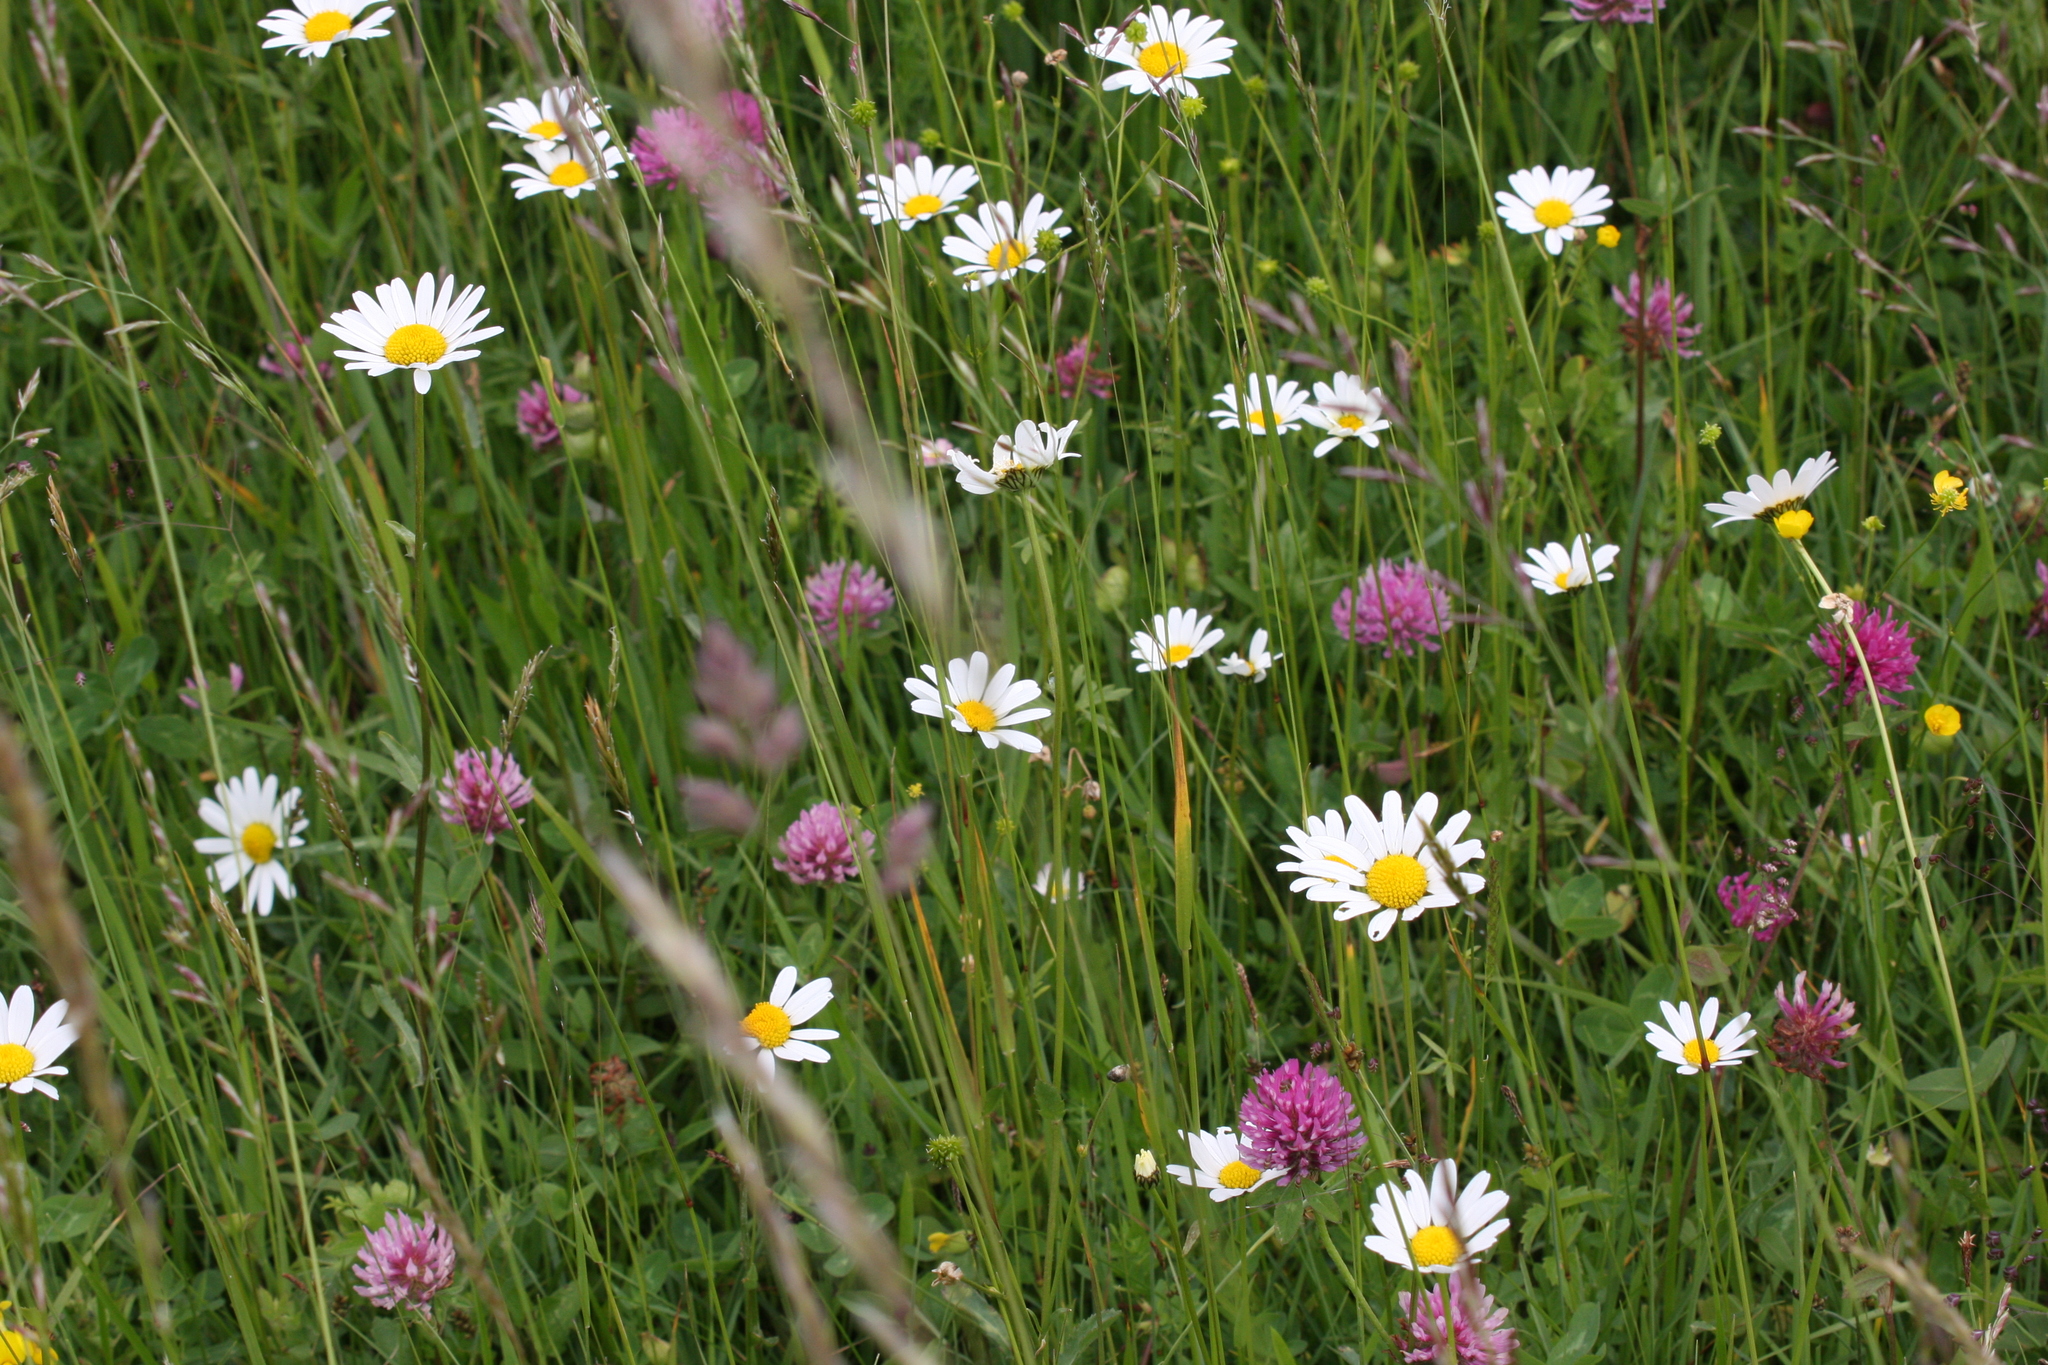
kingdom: Plantae
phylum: Tracheophyta
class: Magnoliopsida
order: Asterales
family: Asteraceae
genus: Leucanthemum
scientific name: Leucanthemum vulgare
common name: Oxeye daisy
